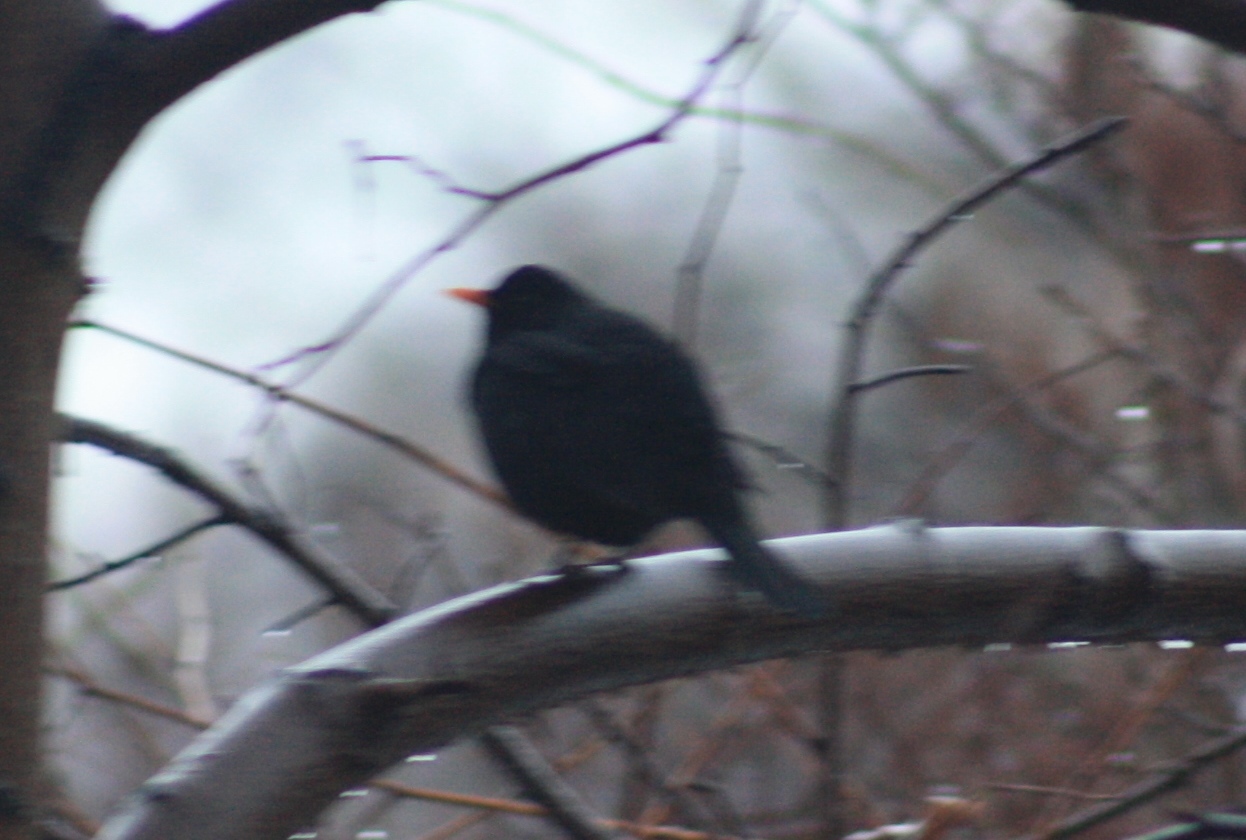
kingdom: Animalia
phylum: Chordata
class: Aves
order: Passeriformes
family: Turdidae
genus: Turdus
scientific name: Turdus merula
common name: Common blackbird
